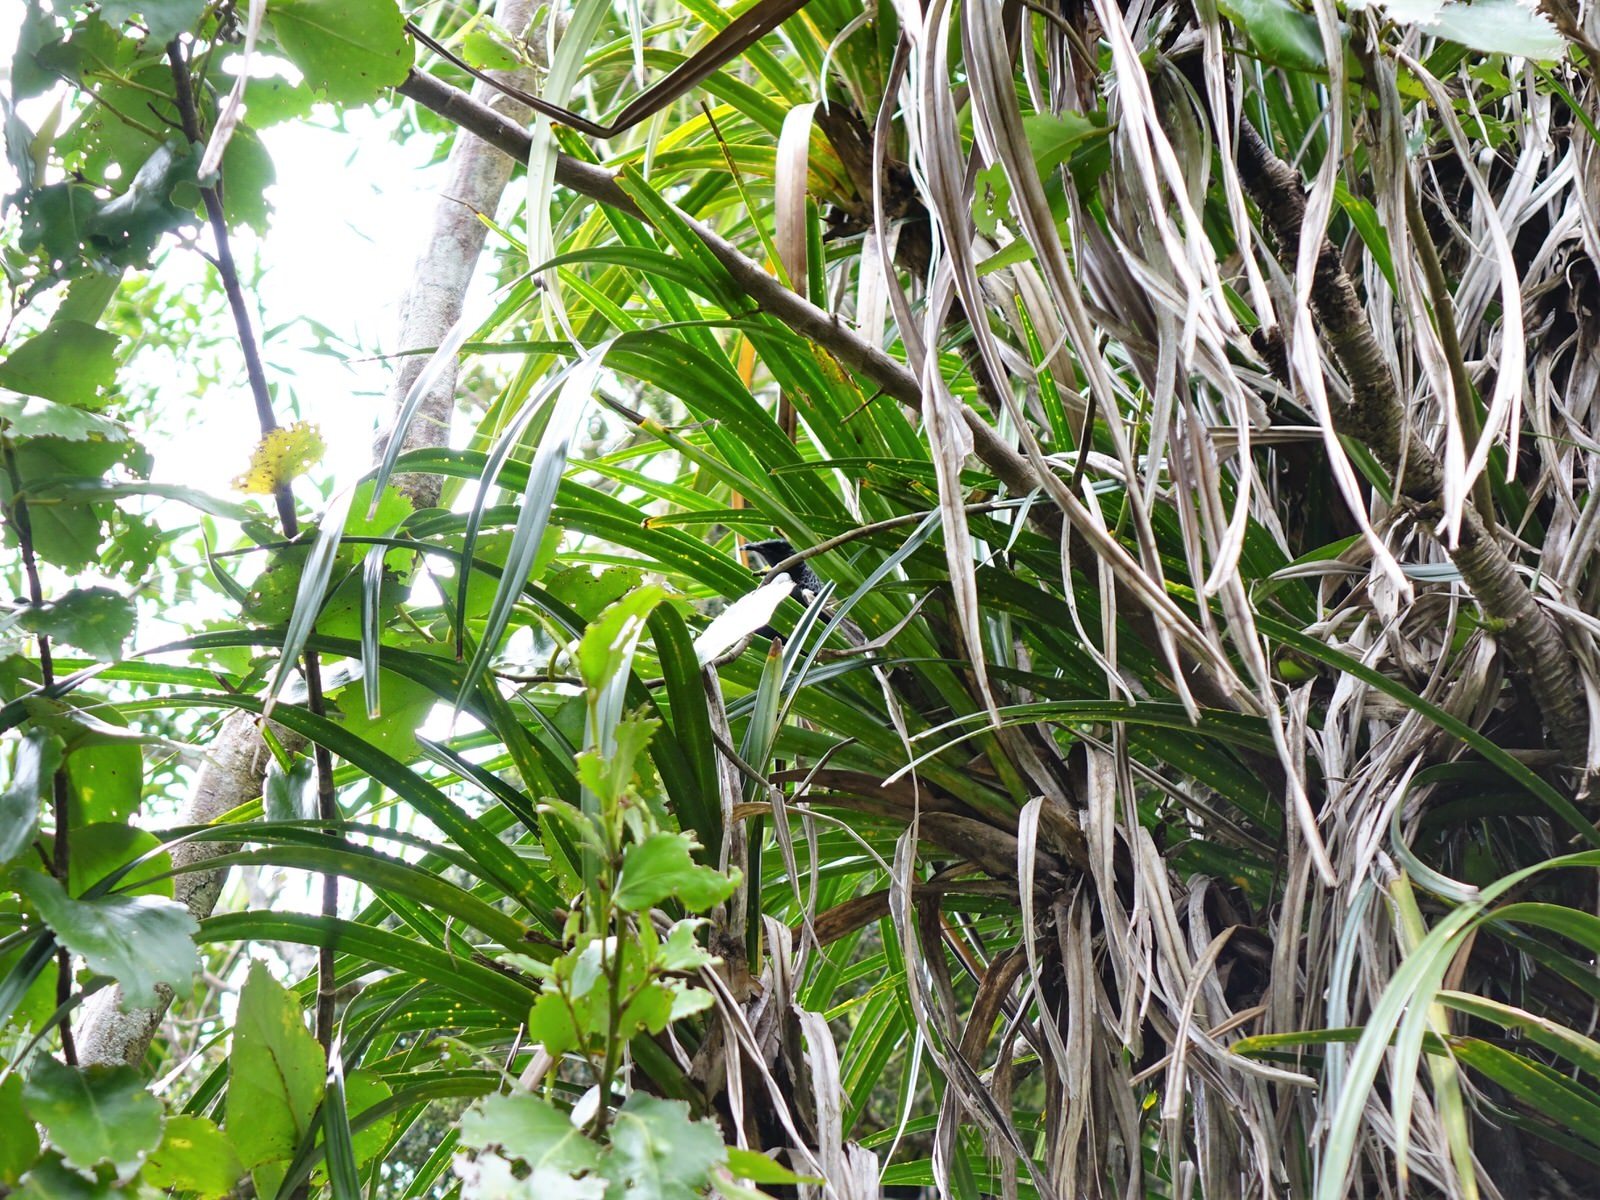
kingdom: Animalia
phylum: Chordata
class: Aves
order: Passeriformes
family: Meliphagidae
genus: Prosthemadera
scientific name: Prosthemadera novaeseelandiae
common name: Tui
